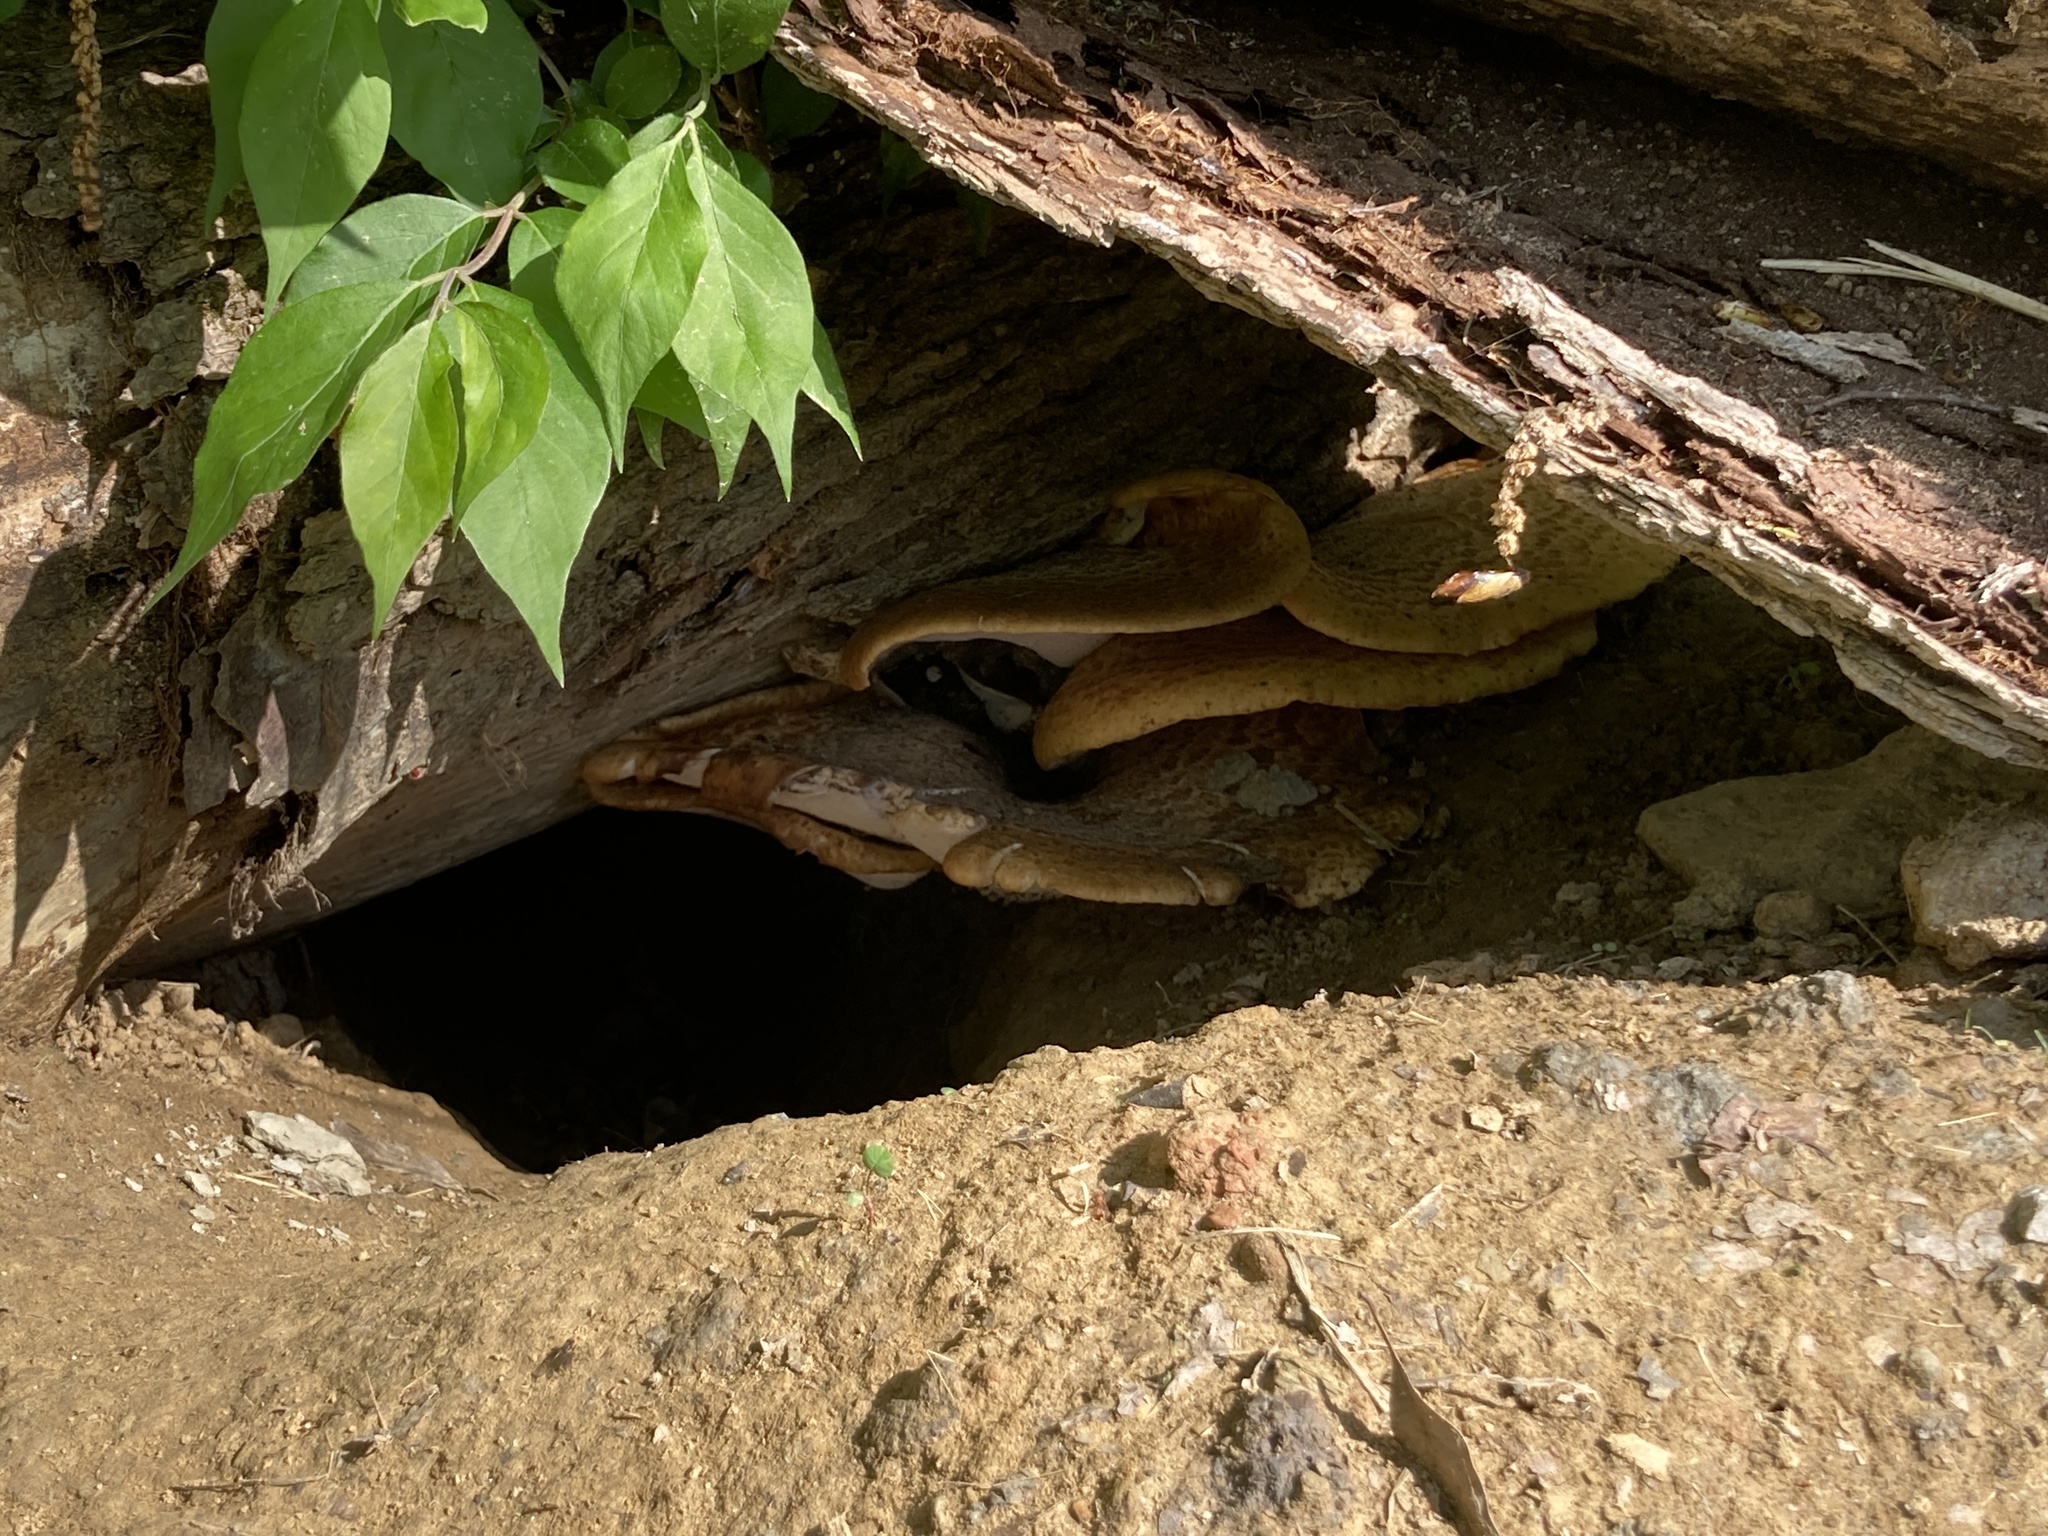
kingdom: Fungi
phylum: Basidiomycota
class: Agaricomycetes
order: Polyporales
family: Polyporaceae
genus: Cerioporus
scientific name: Cerioporus squamosus
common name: Dryad's saddle
